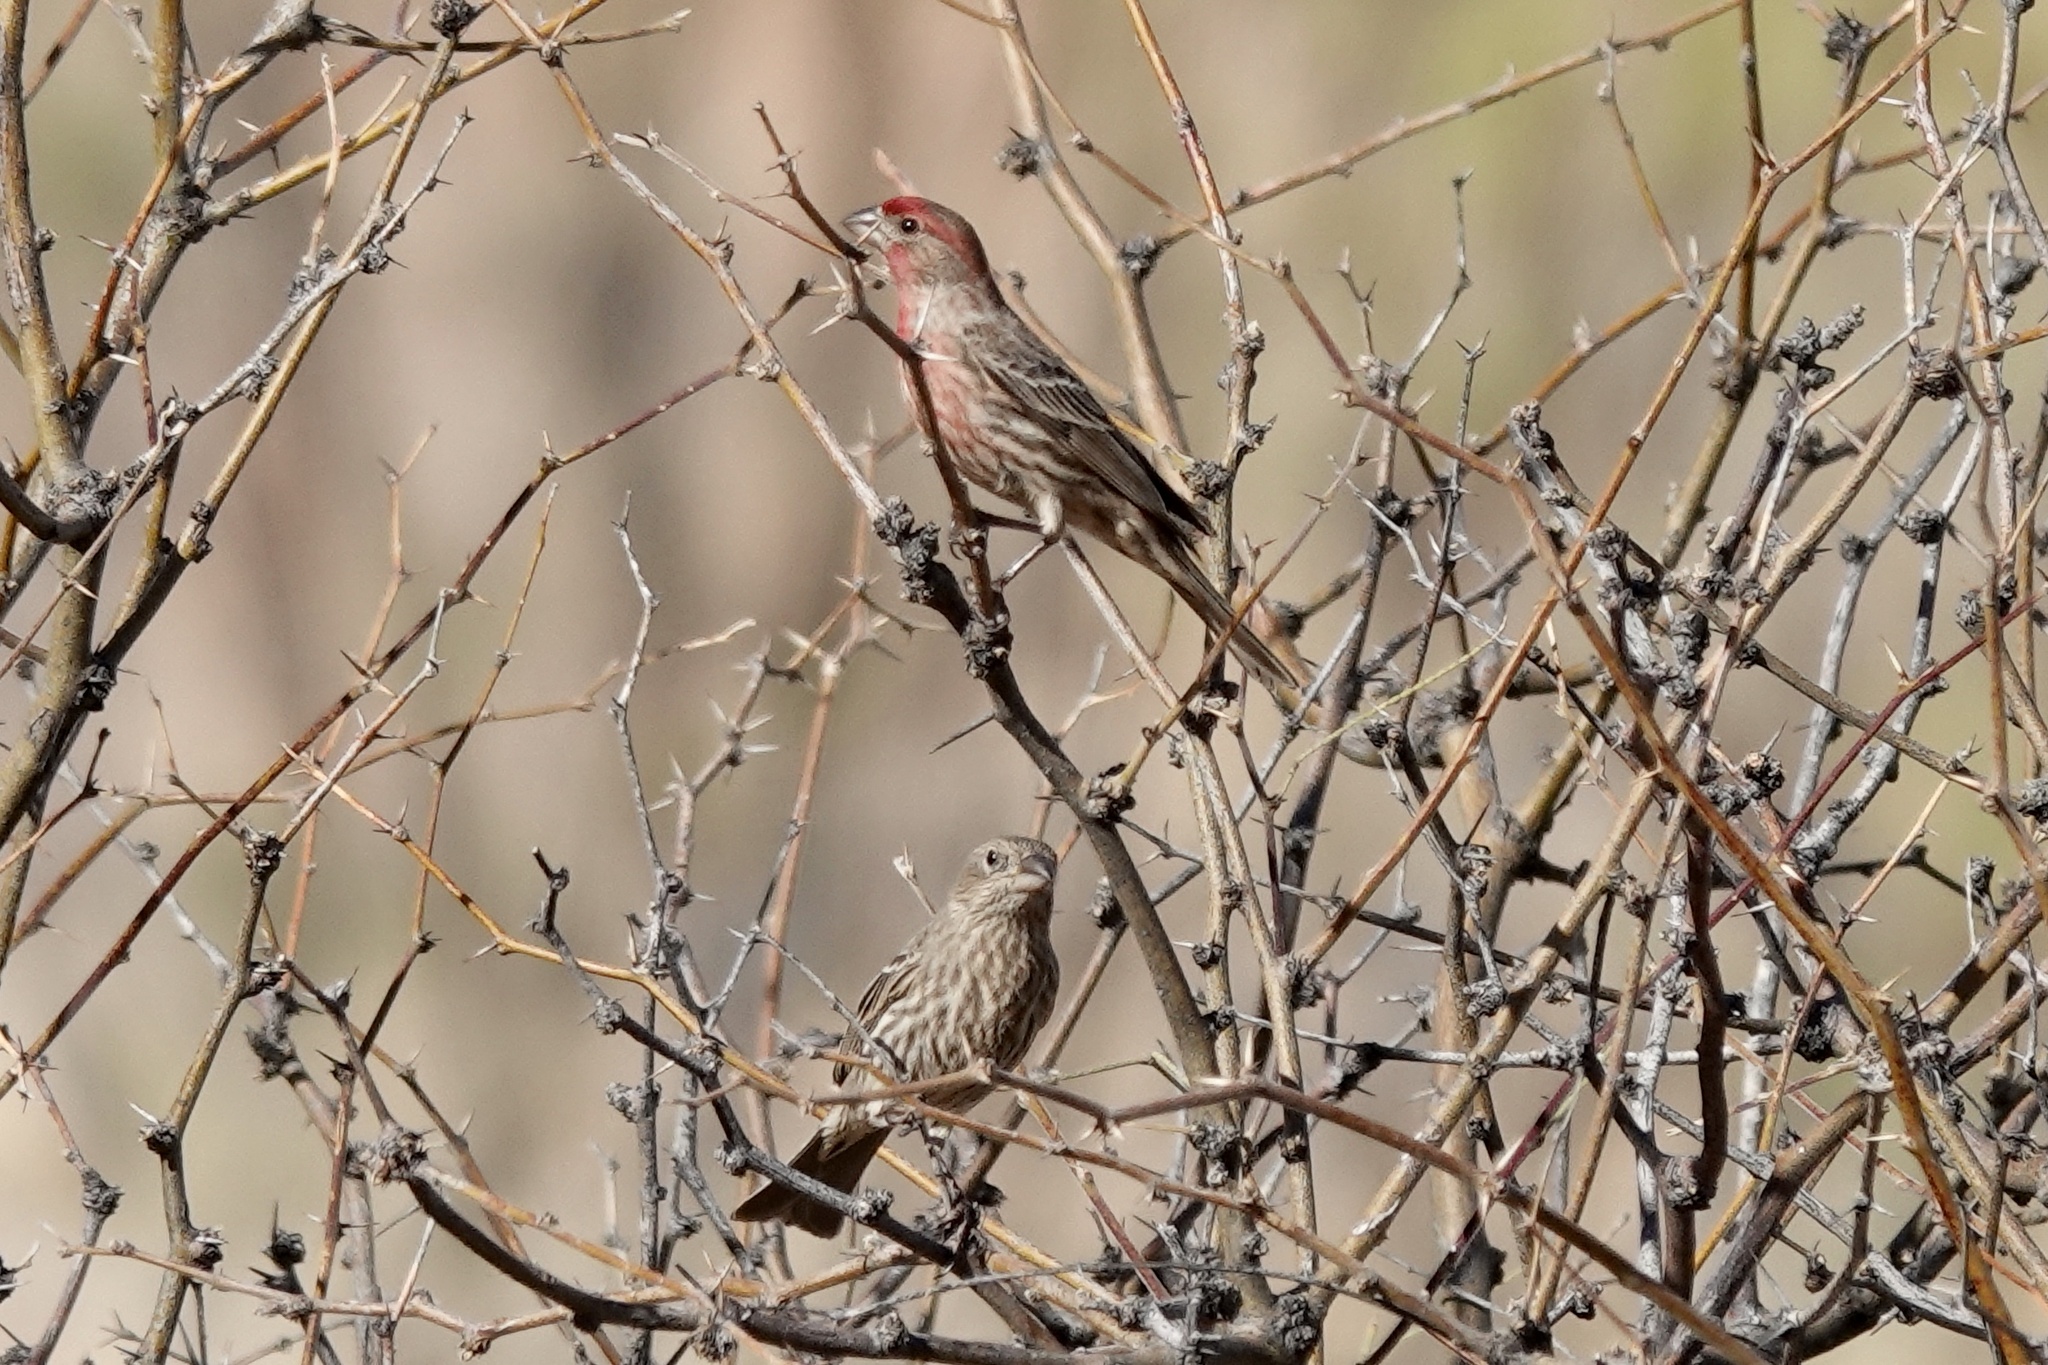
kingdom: Animalia
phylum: Chordata
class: Aves
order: Passeriformes
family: Fringillidae
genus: Haemorhous
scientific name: Haemorhous mexicanus
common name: House finch
